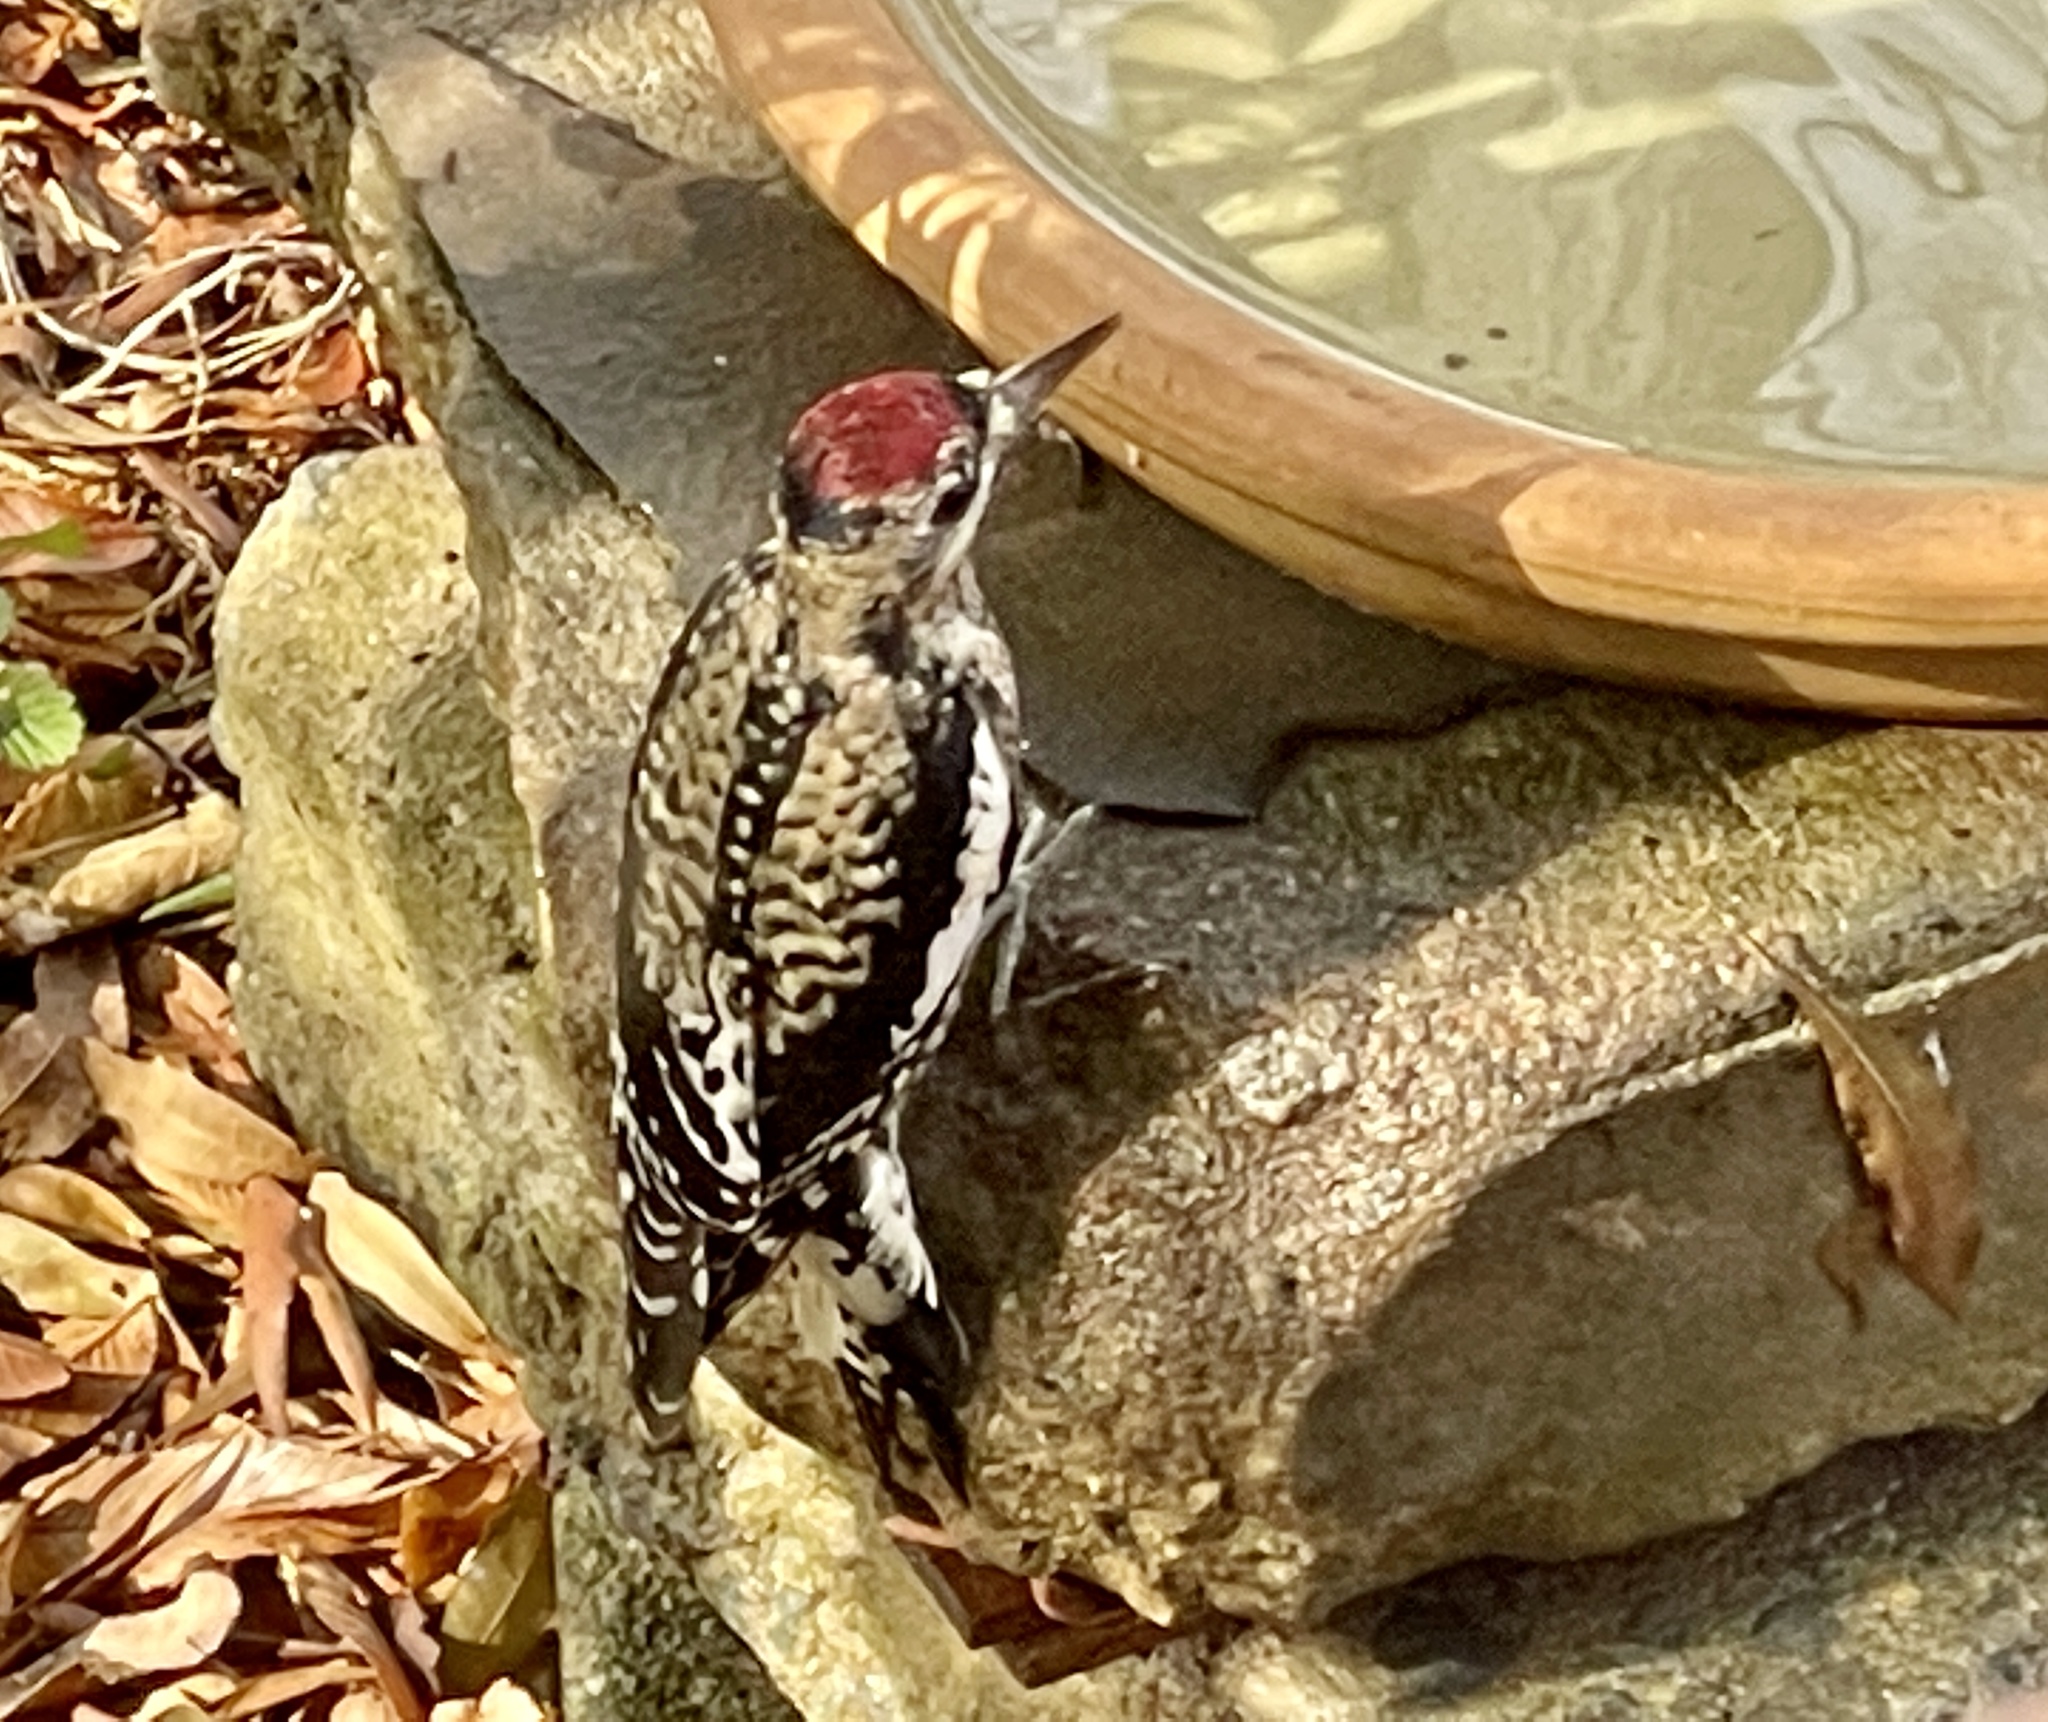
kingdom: Animalia
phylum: Chordata
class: Aves
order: Piciformes
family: Picidae
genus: Sphyrapicus
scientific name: Sphyrapicus varius
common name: Yellow-bellied sapsucker
